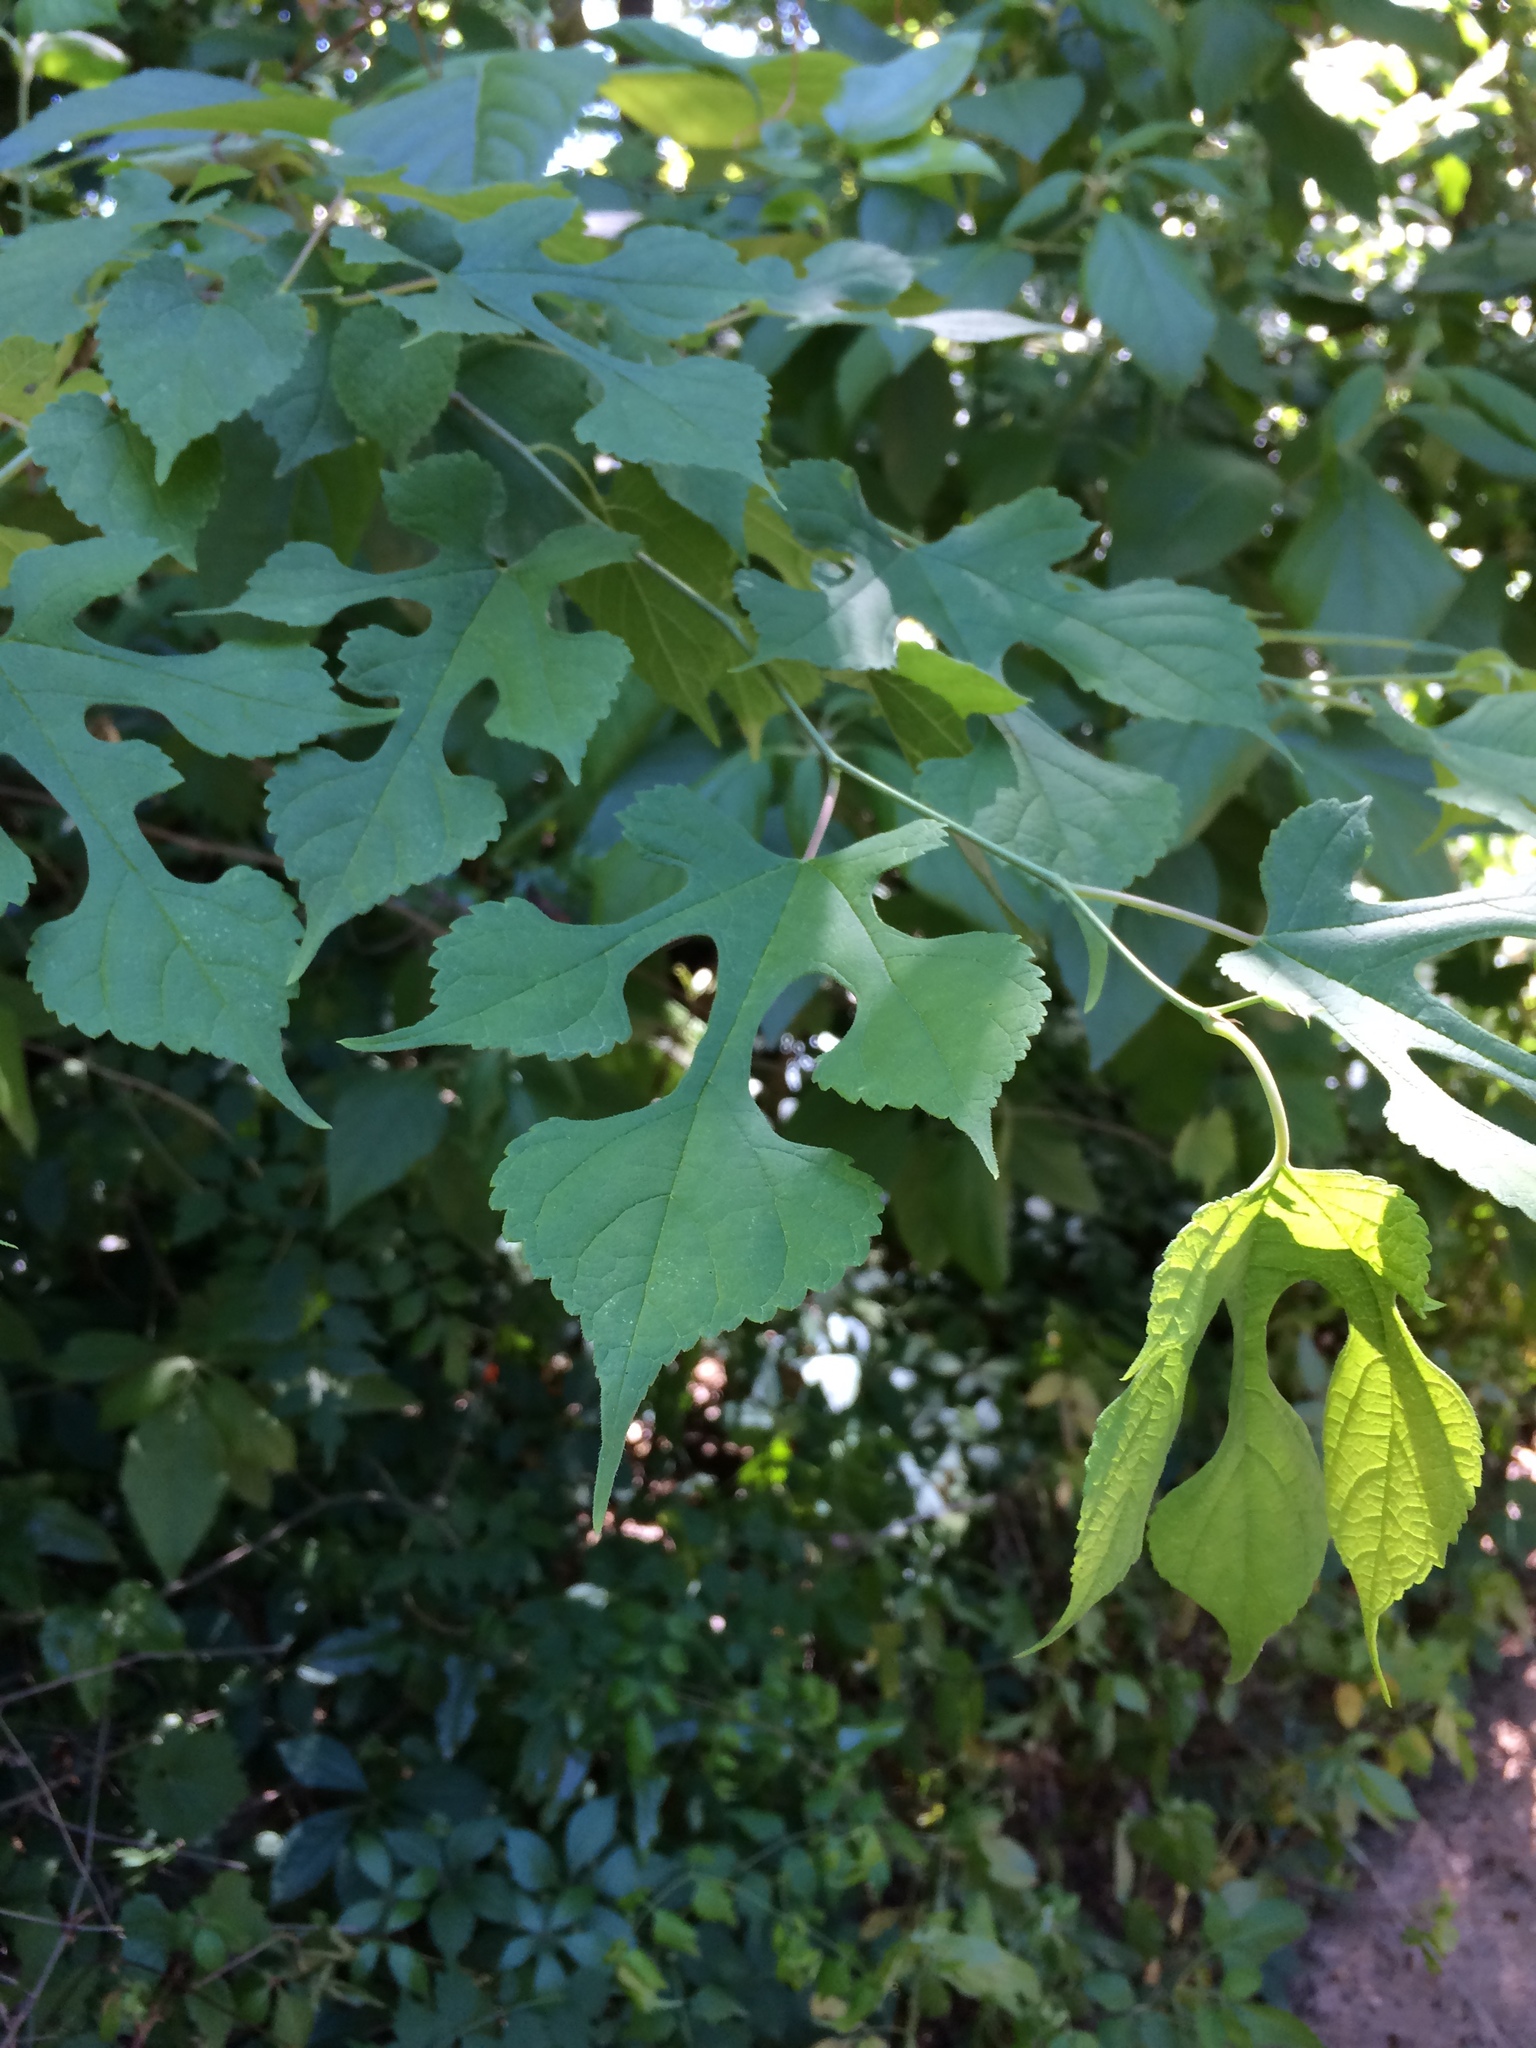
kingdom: Plantae
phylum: Tracheophyta
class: Magnoliopsida
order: Rosales
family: Moraceae
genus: Morus
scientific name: Morus rubra
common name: Red mulberry
